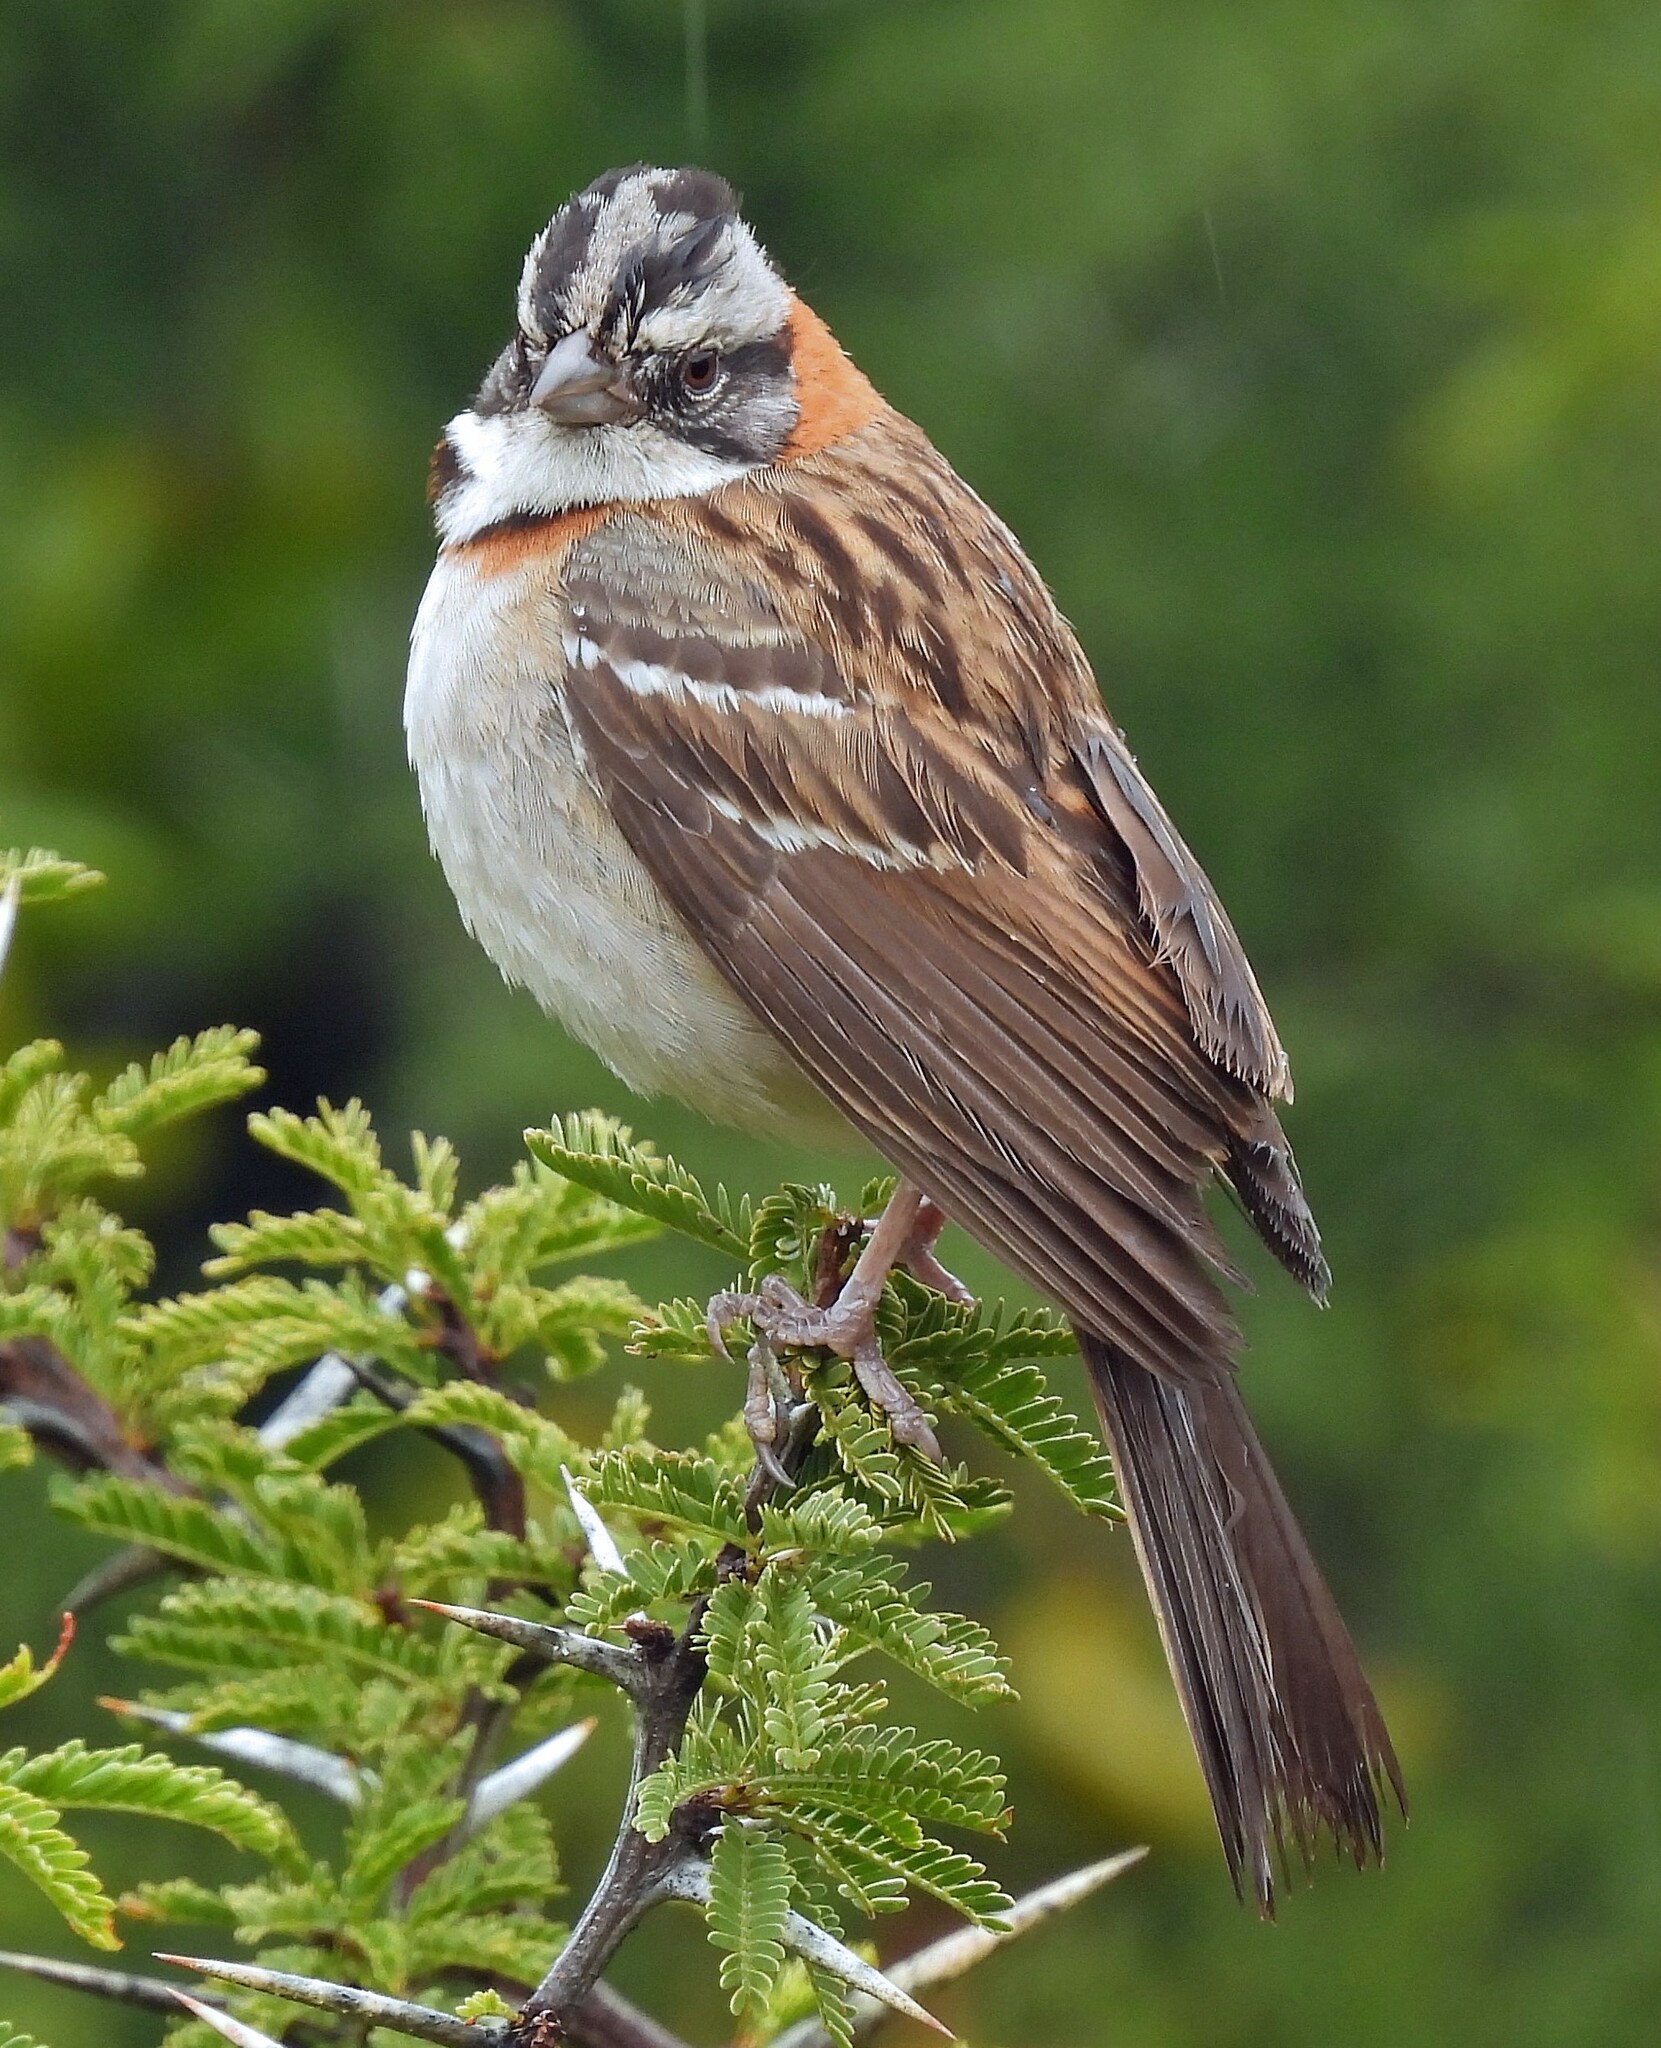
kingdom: Animalia
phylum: Chordata
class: Aves
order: Passeriformes
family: Passerellidae
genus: Zonotrichia
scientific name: Zonotrichia capensis
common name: Rufous-collared sparrow
